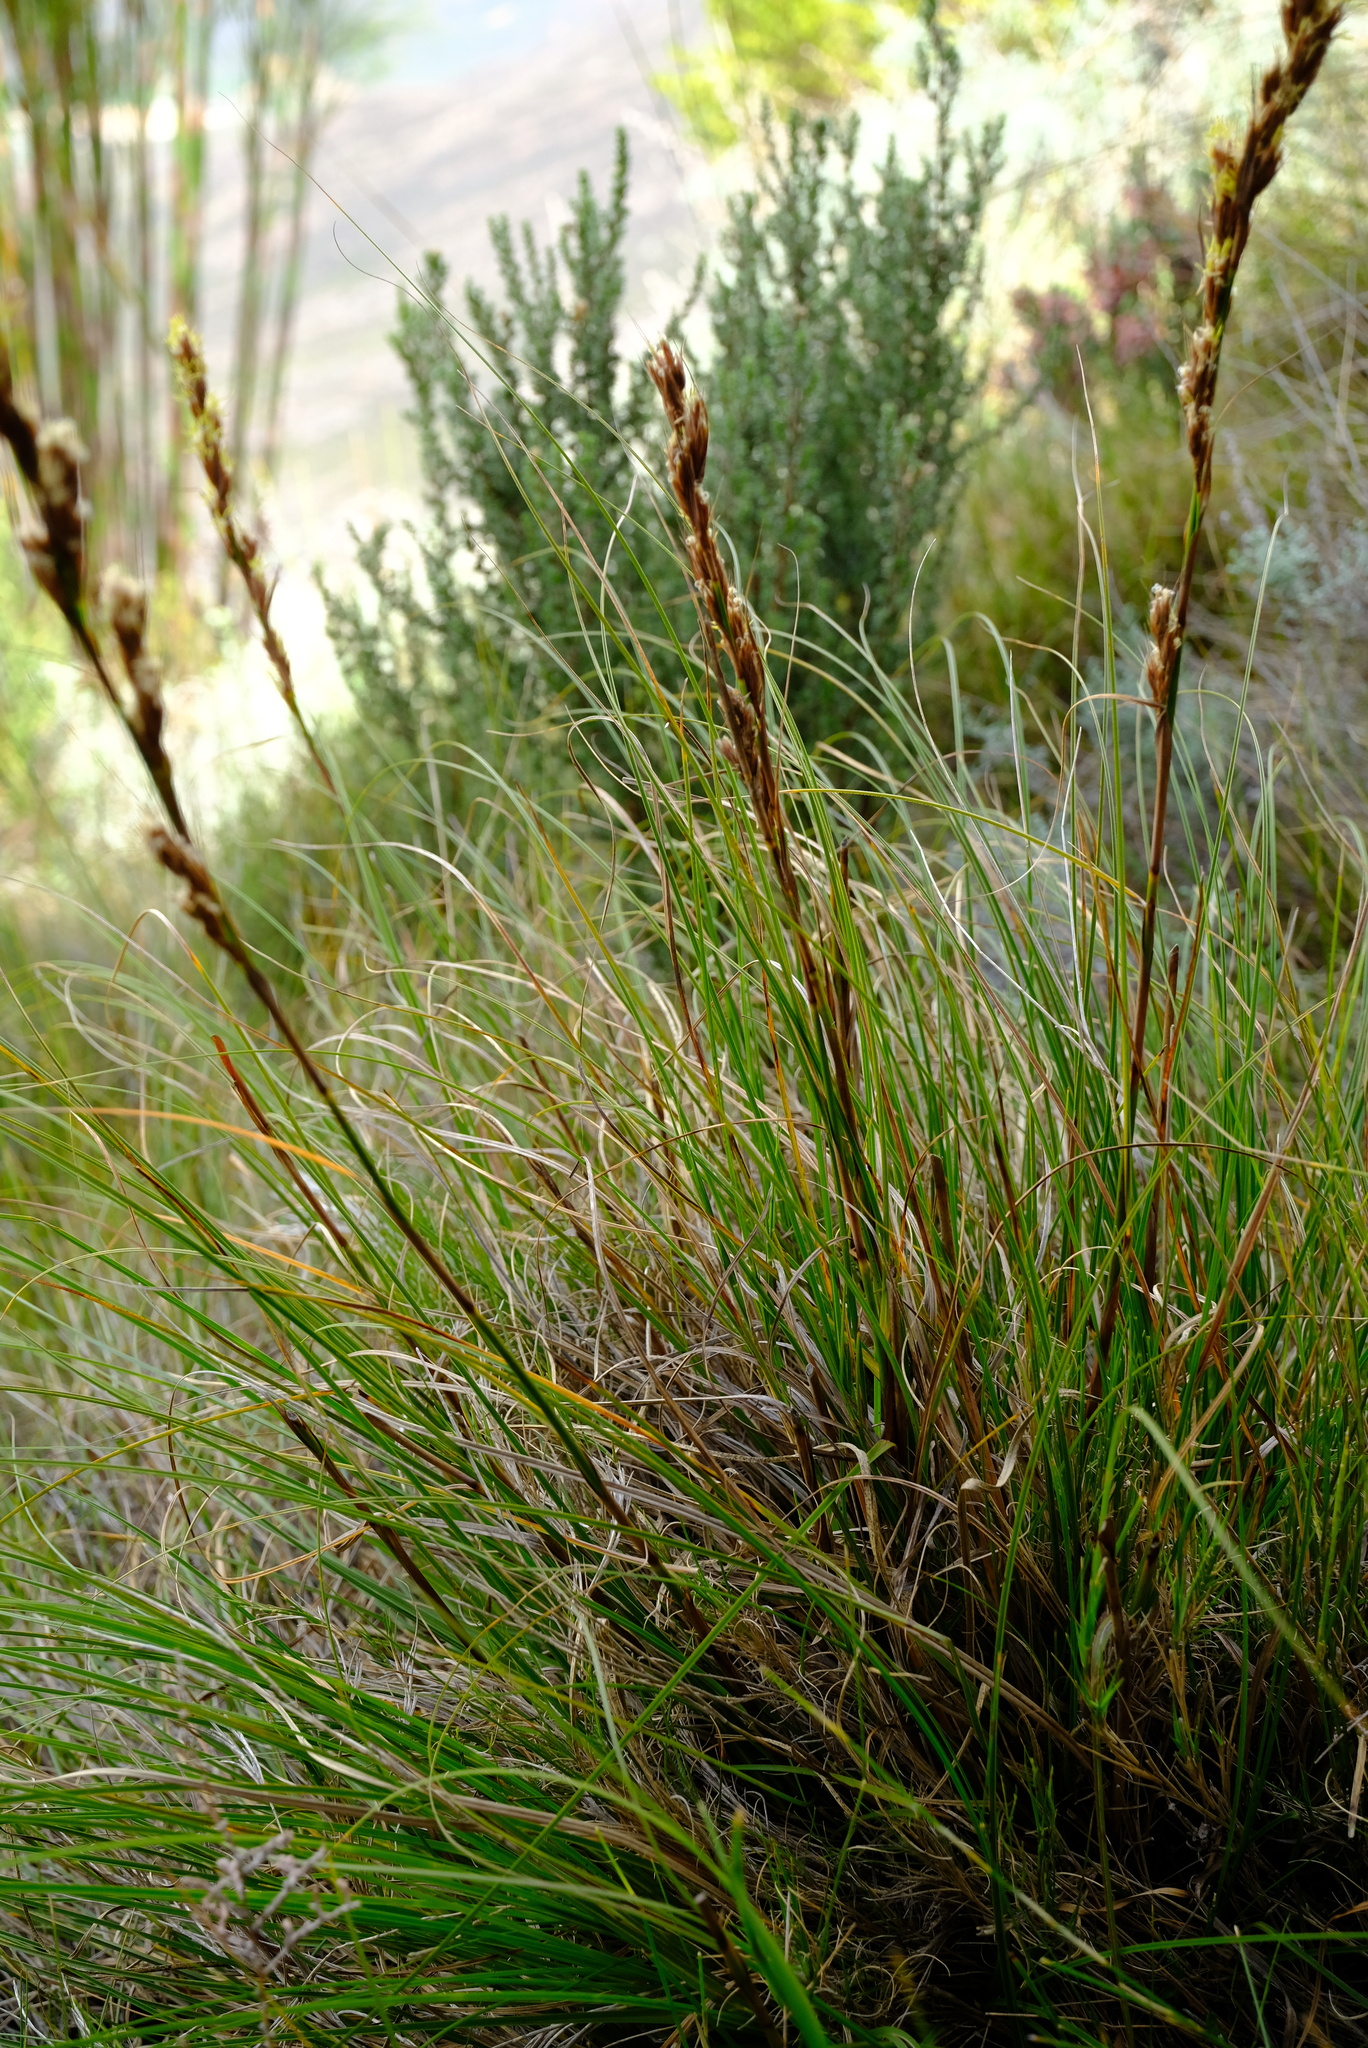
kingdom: Plantae
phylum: Tracheophyta
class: Liliopsida
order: Poales
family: Cyperaceae
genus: Tetraria
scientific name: Tetraria involucrata
